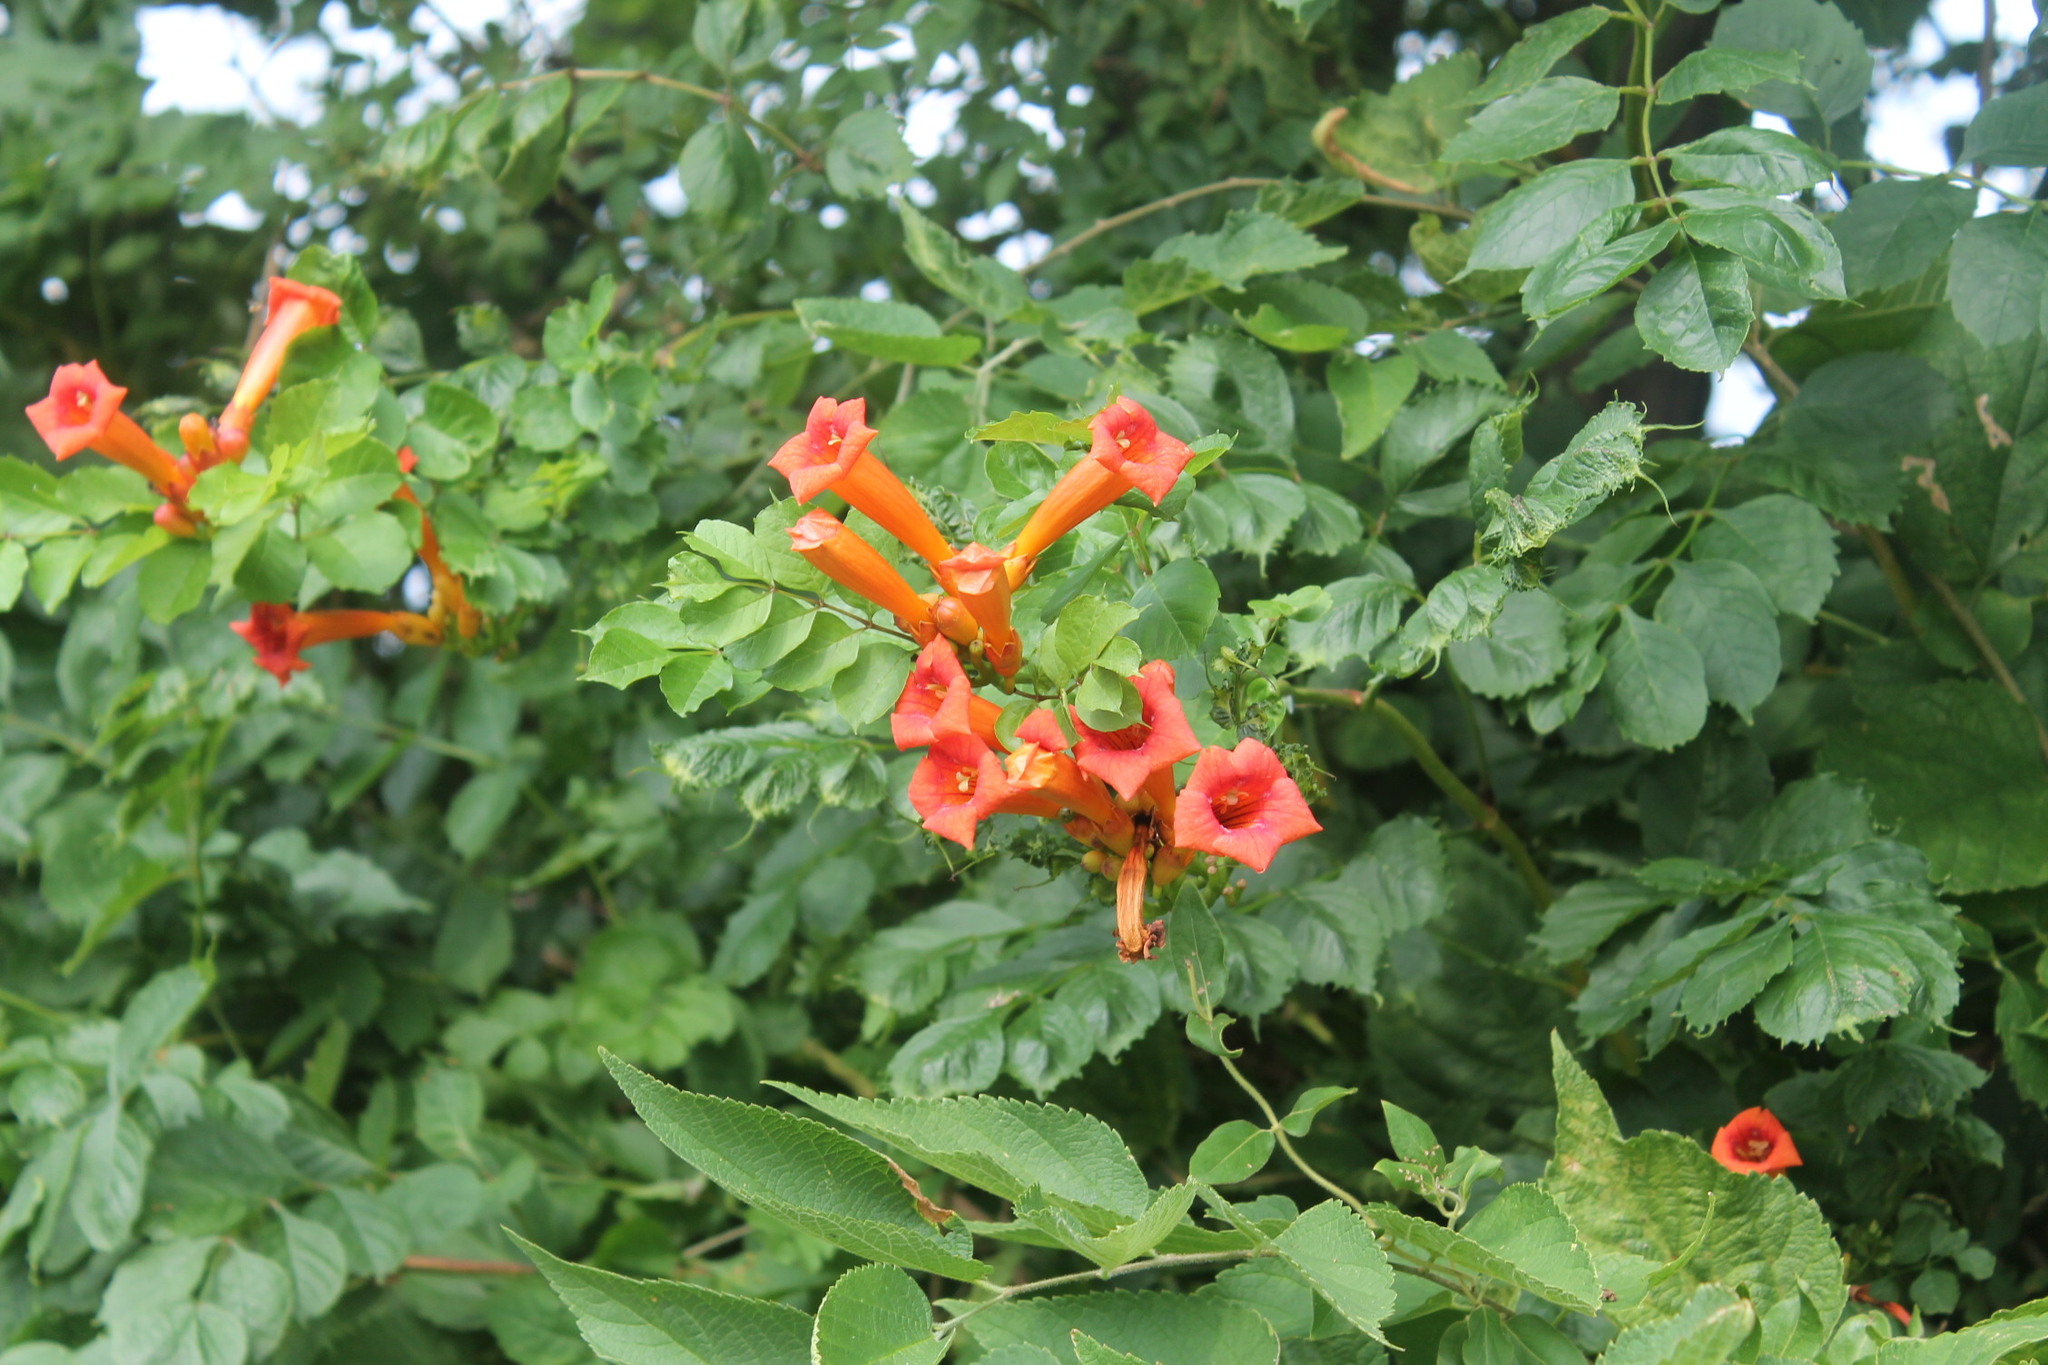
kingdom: Plantae
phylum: Tracheophyta
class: Magnoliopsida
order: Lamiales
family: Bignoniaceae
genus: Campsis
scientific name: Campsis radicans
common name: Trumpet-creeper
